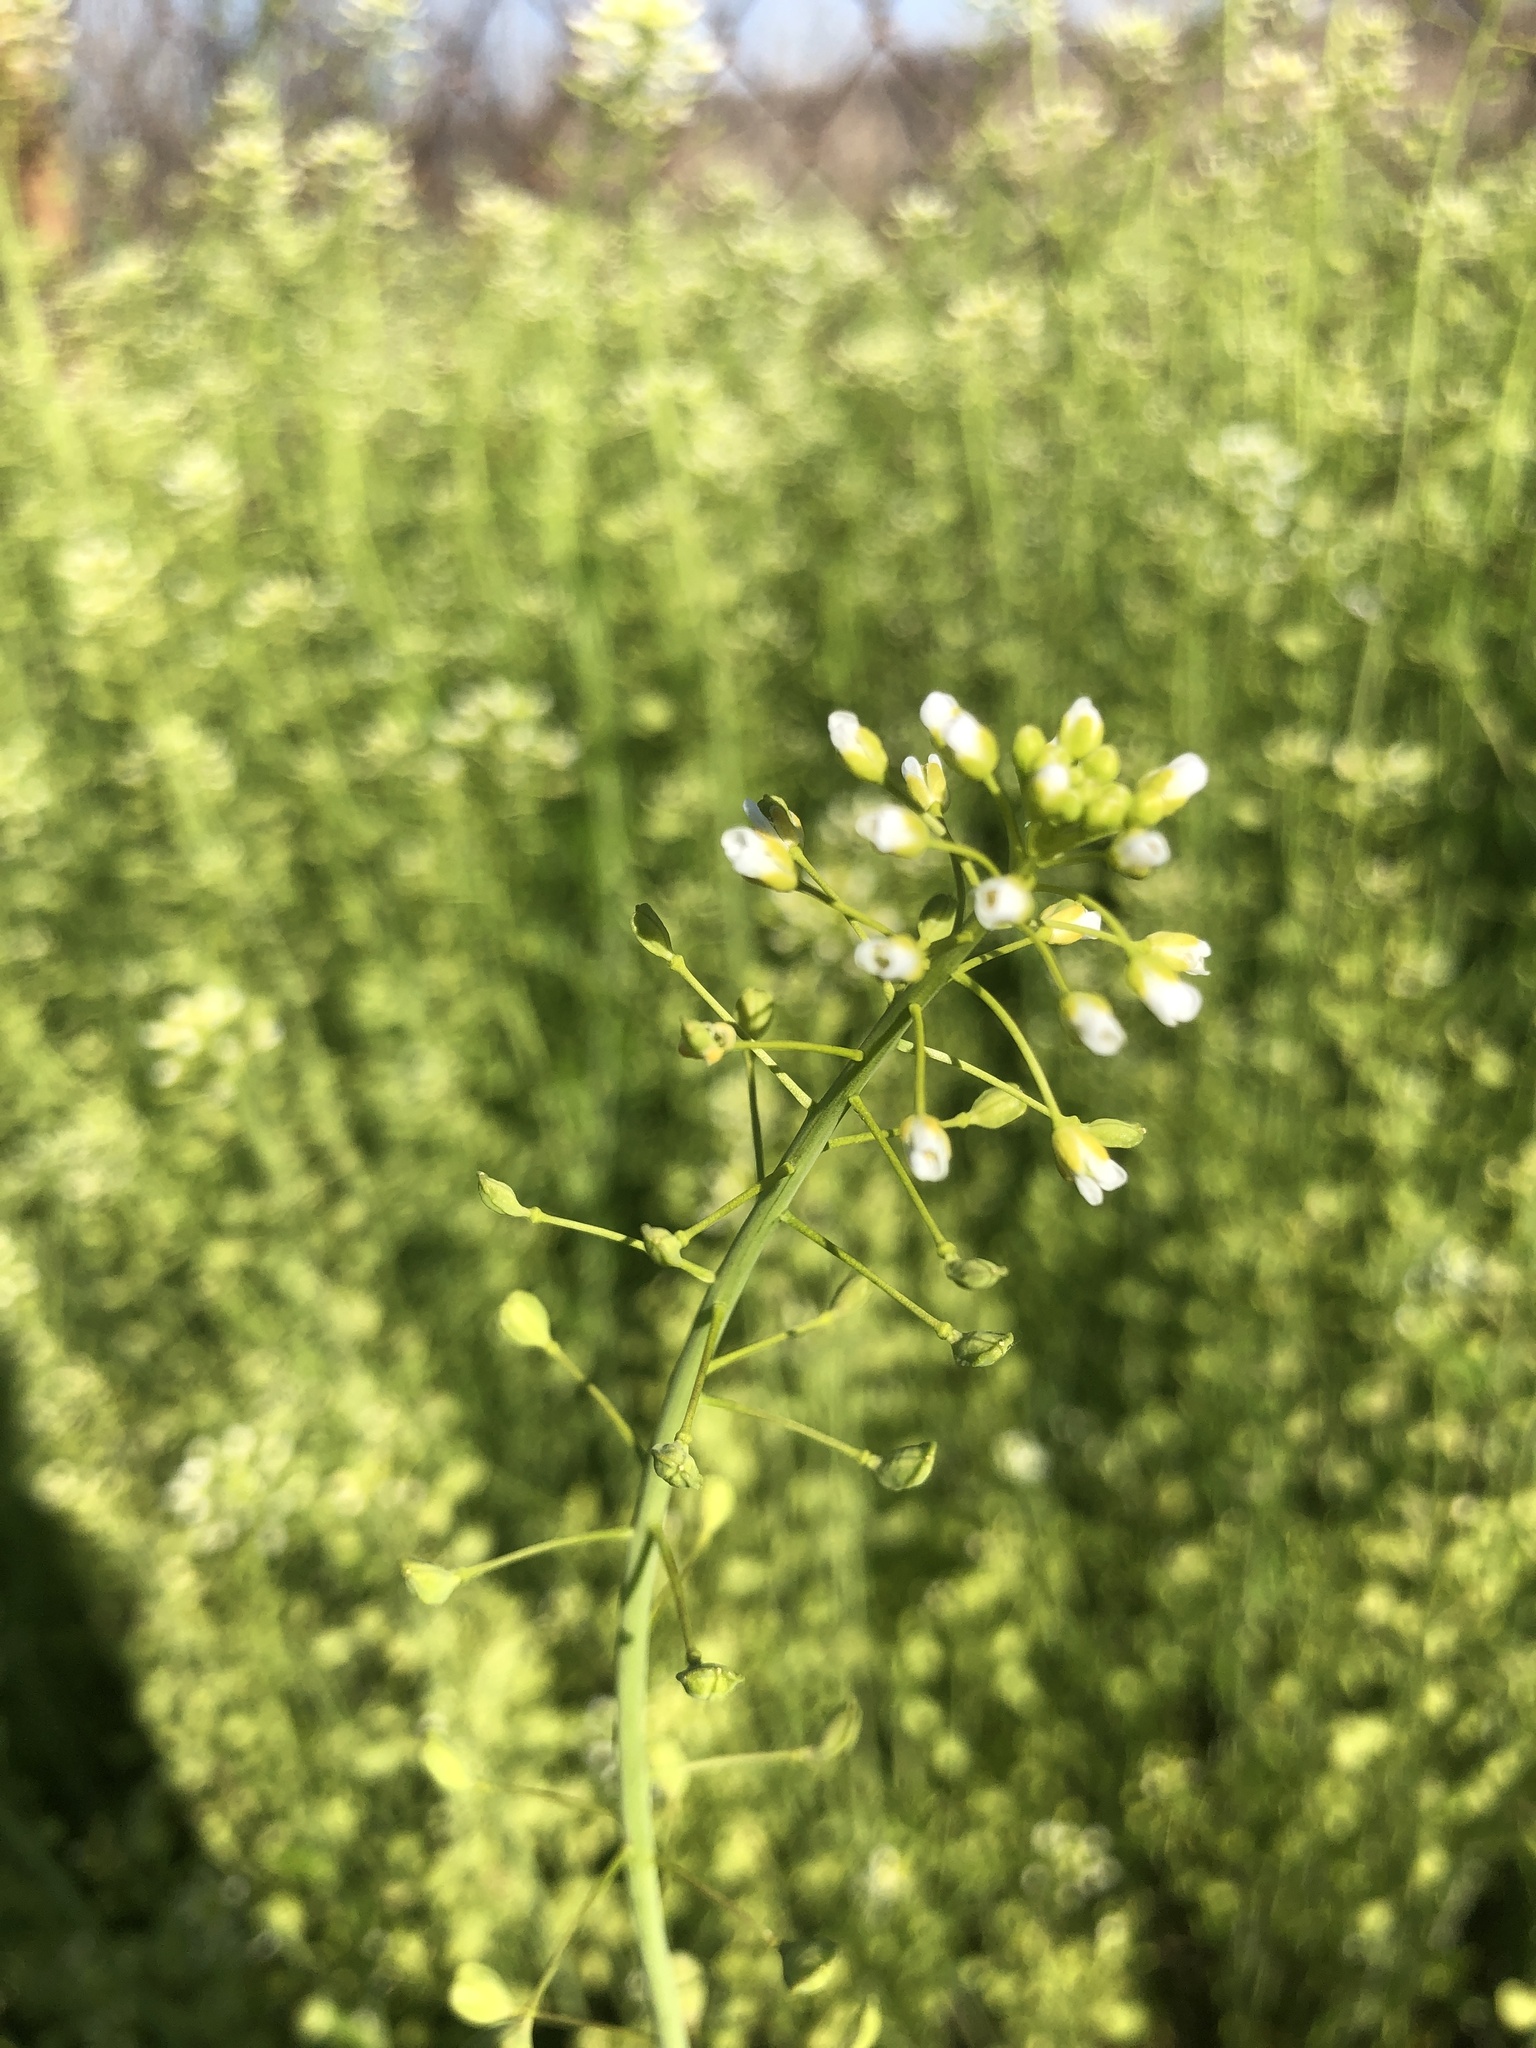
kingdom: Plantae
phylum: Tracheophyta
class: Magnoliopsida
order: Brassicales
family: Brassicaceae
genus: Mummenhoffia
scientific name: Mummenhoffia alliacea
